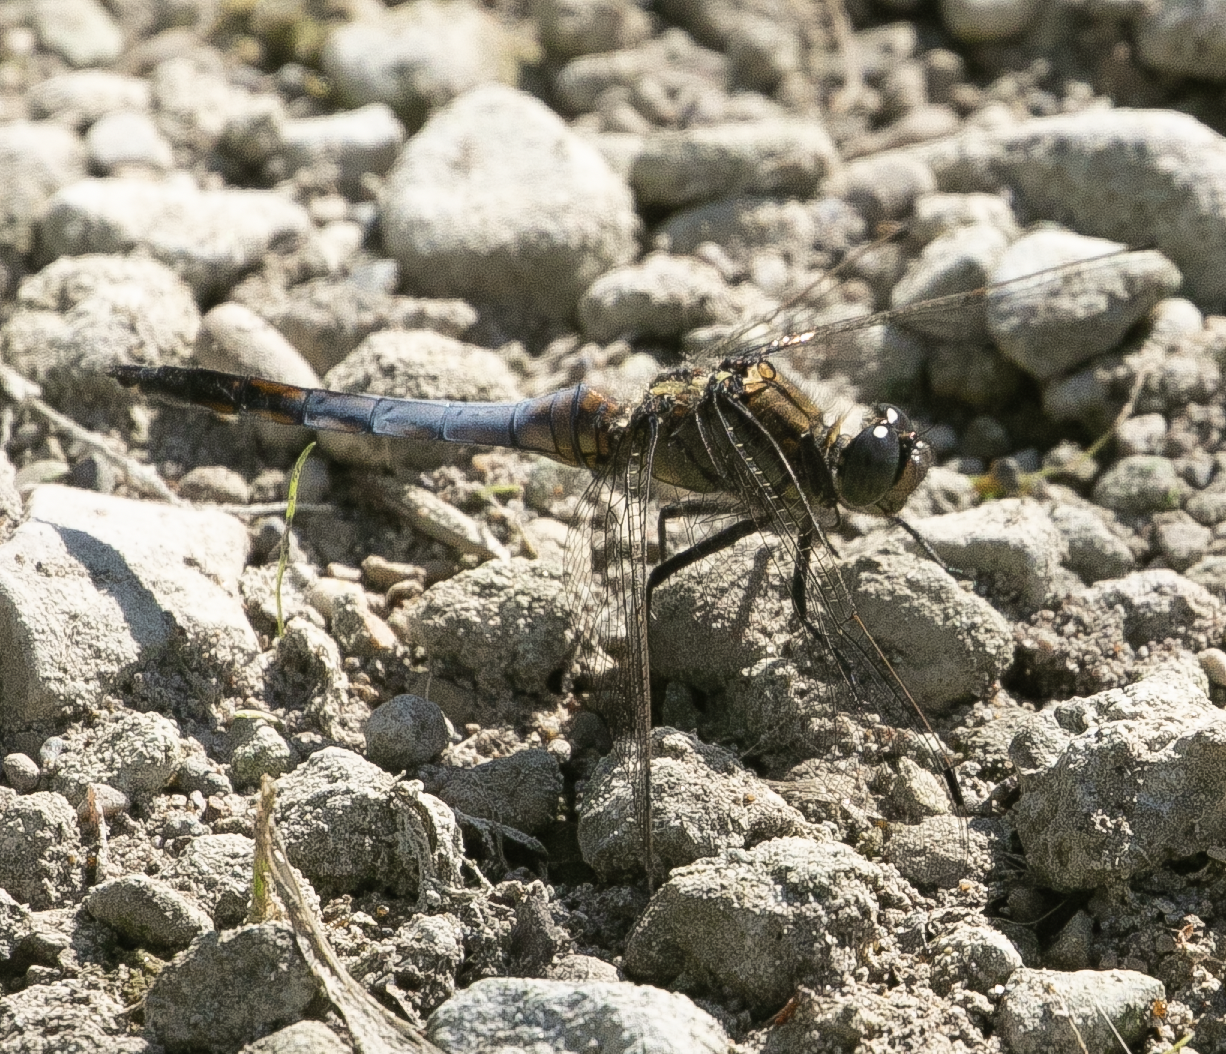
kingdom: Animalia
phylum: Arthropoda
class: Insecta
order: Odonata
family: Libellulidae
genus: Orthetrum
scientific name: Orthetrum cancellatum
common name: Black-tailed skimmer
